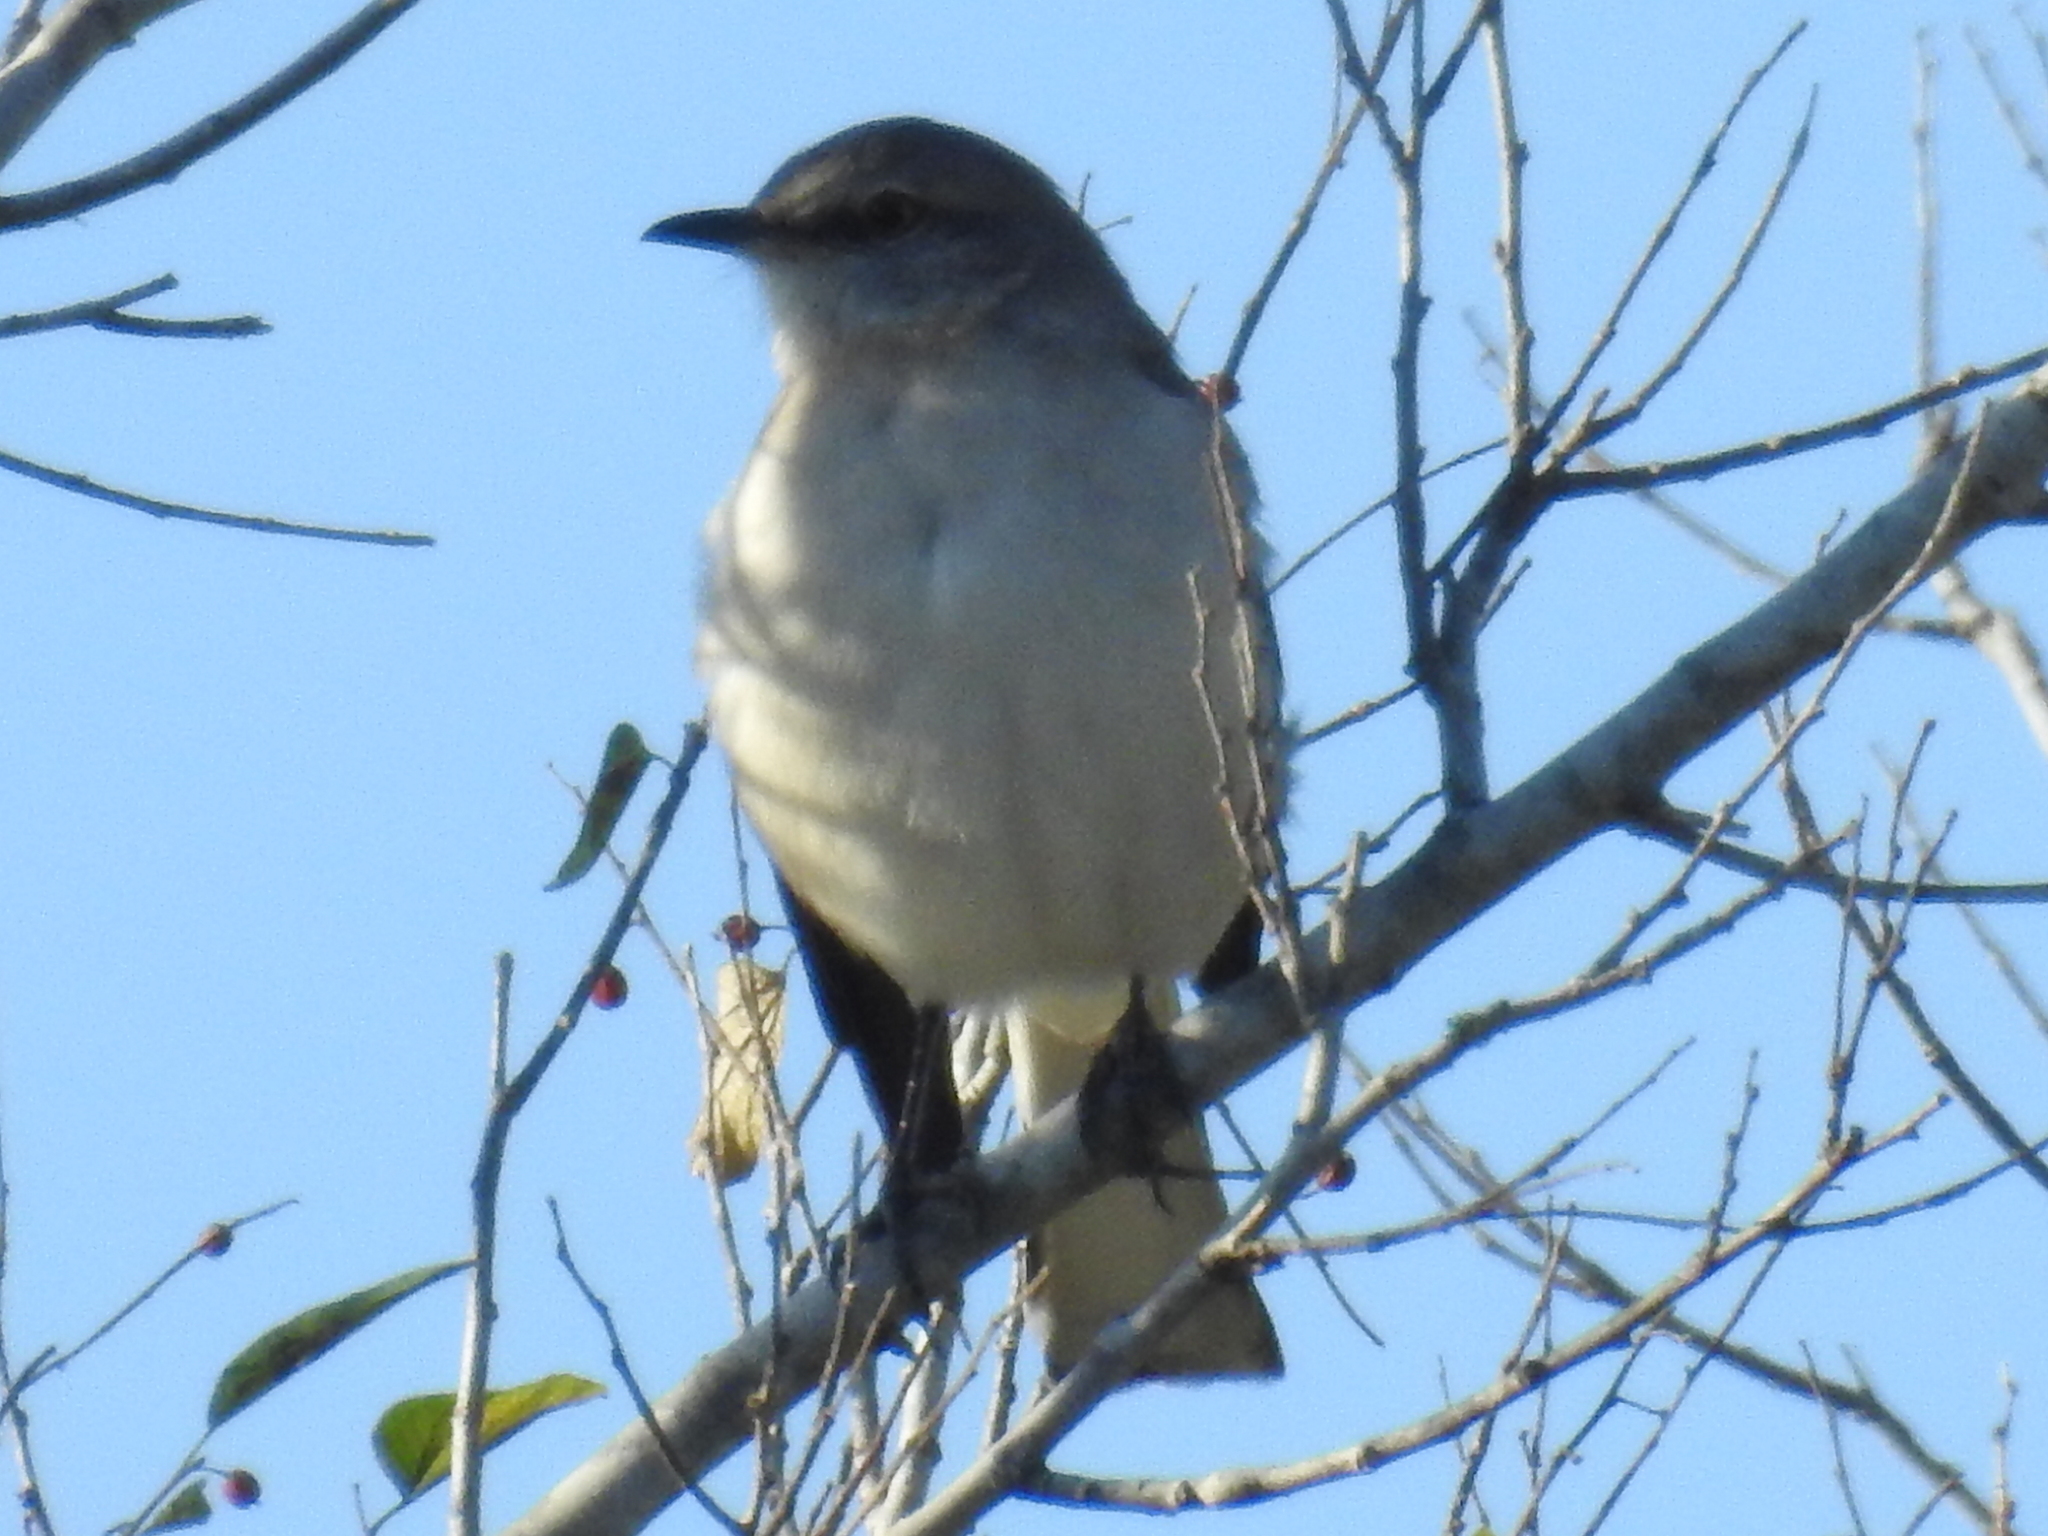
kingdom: Animalia
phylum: Chordata
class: Aves
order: Passeriformes
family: Mimidae
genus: Mimus
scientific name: Mimus polyglottos
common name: Northern mockingbird
